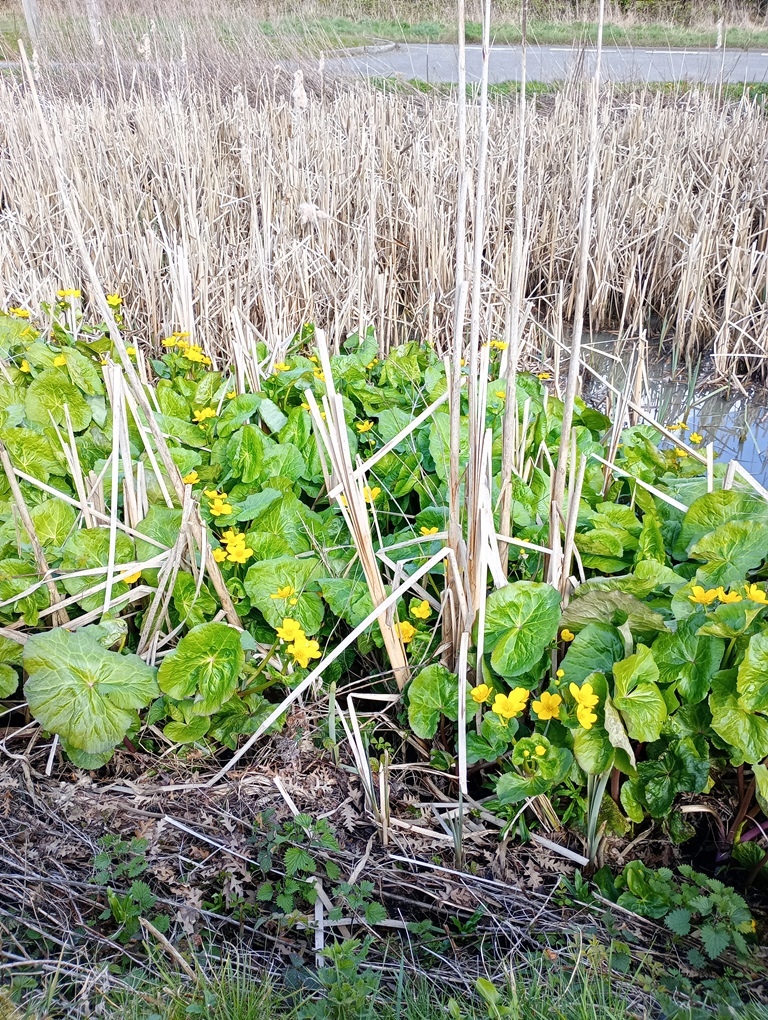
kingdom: Plantae
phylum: Tracheophyta
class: Magnoliopsida
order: Ranunculales
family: Ranunculaceae
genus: Caltha
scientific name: Caltha palustris
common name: Marsh marigold
